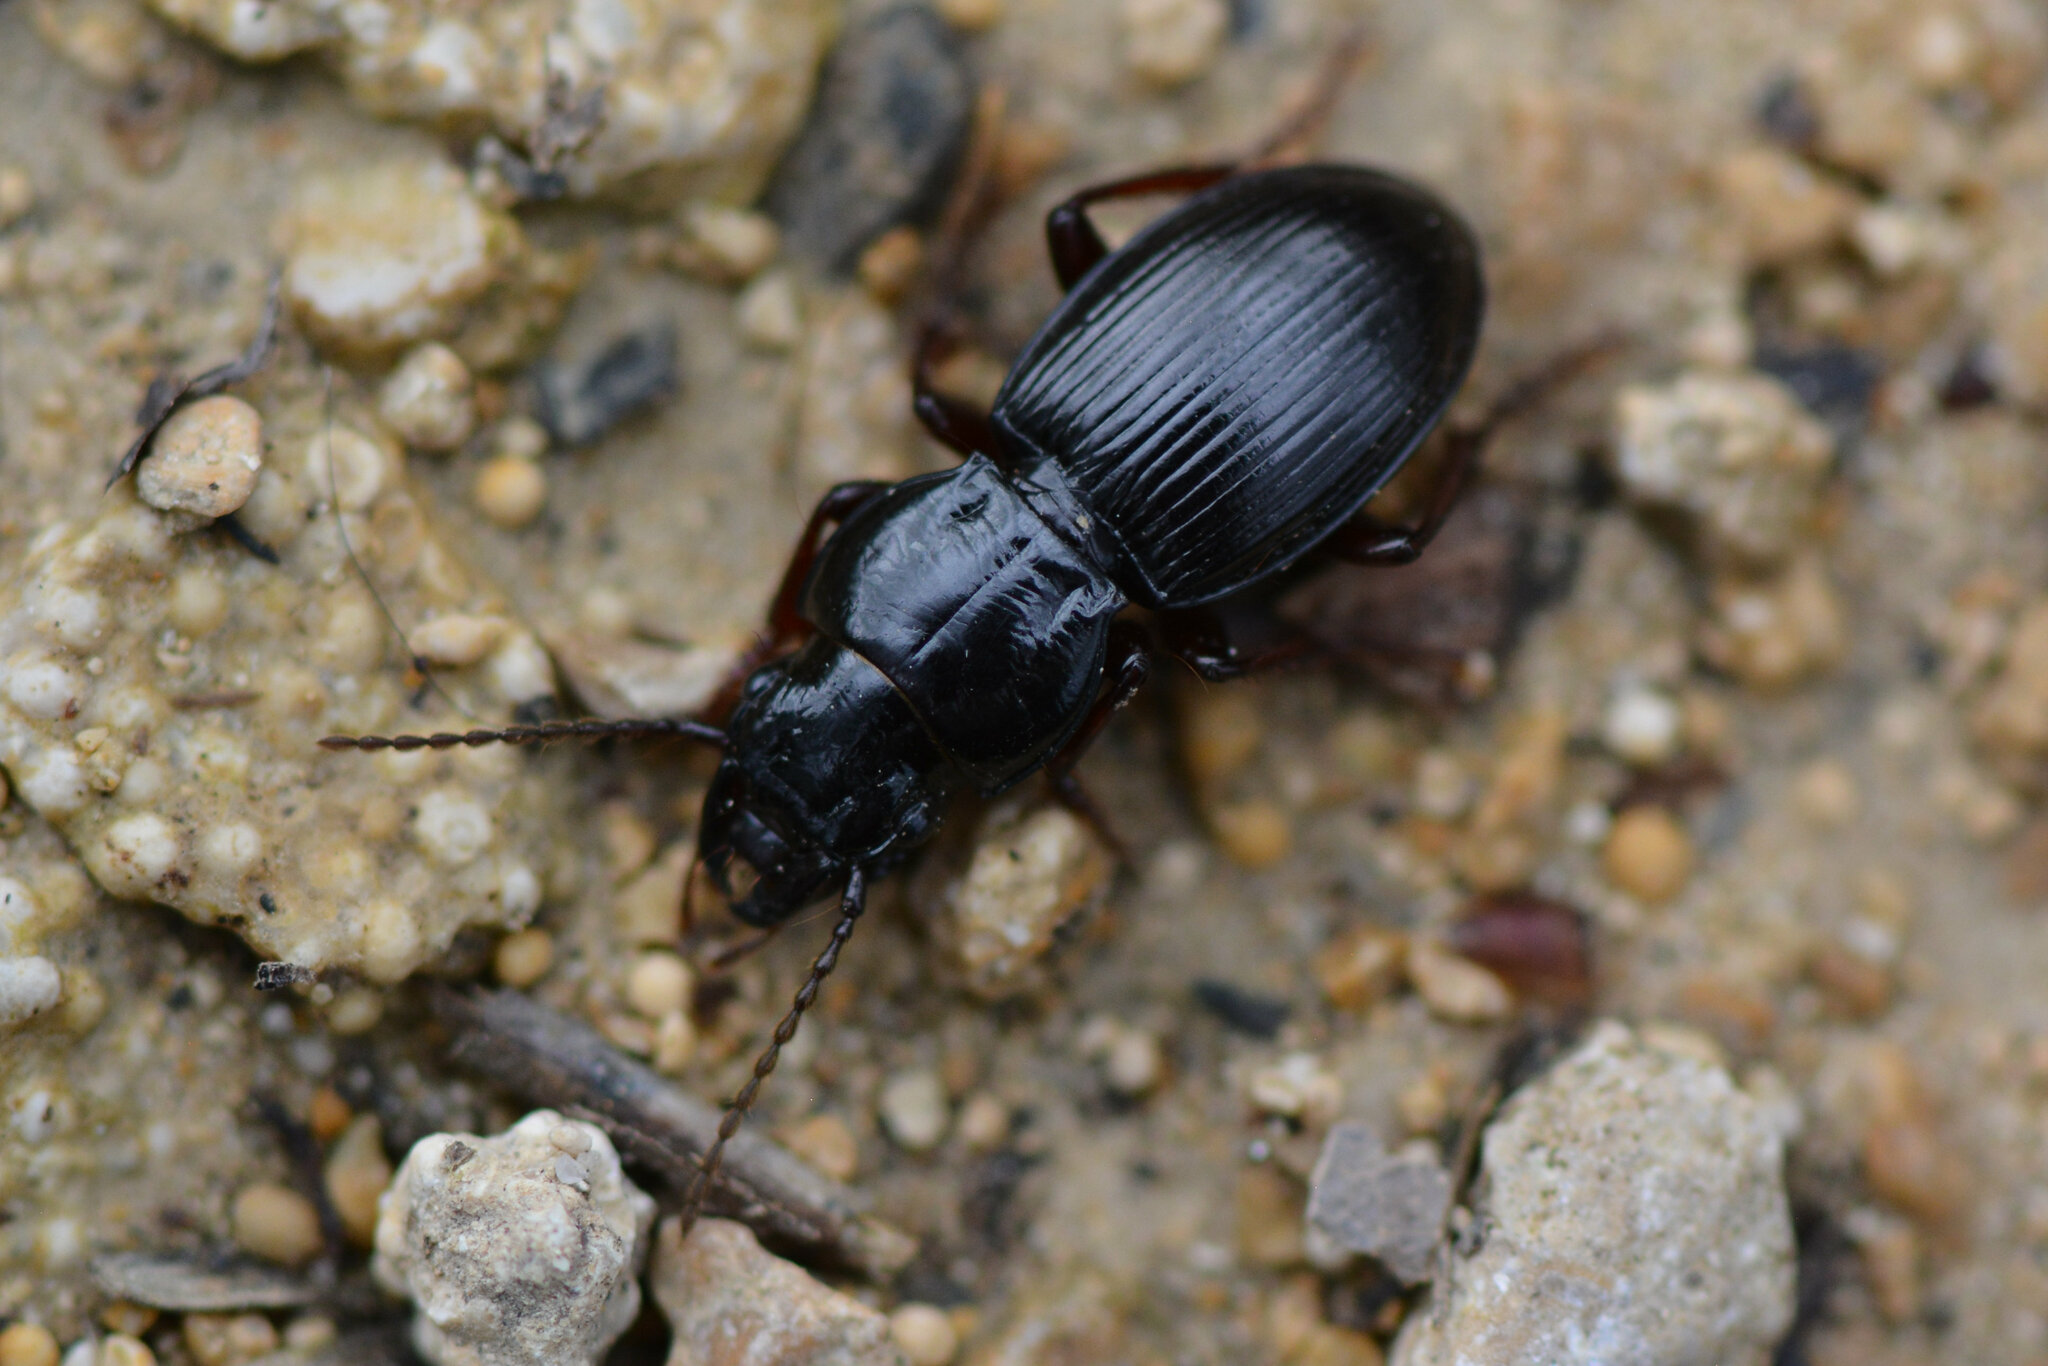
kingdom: Animalia
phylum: Arthropoda
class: Insecta
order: Coleoptera
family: Carabidae
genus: Molops
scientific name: Molops piceus
